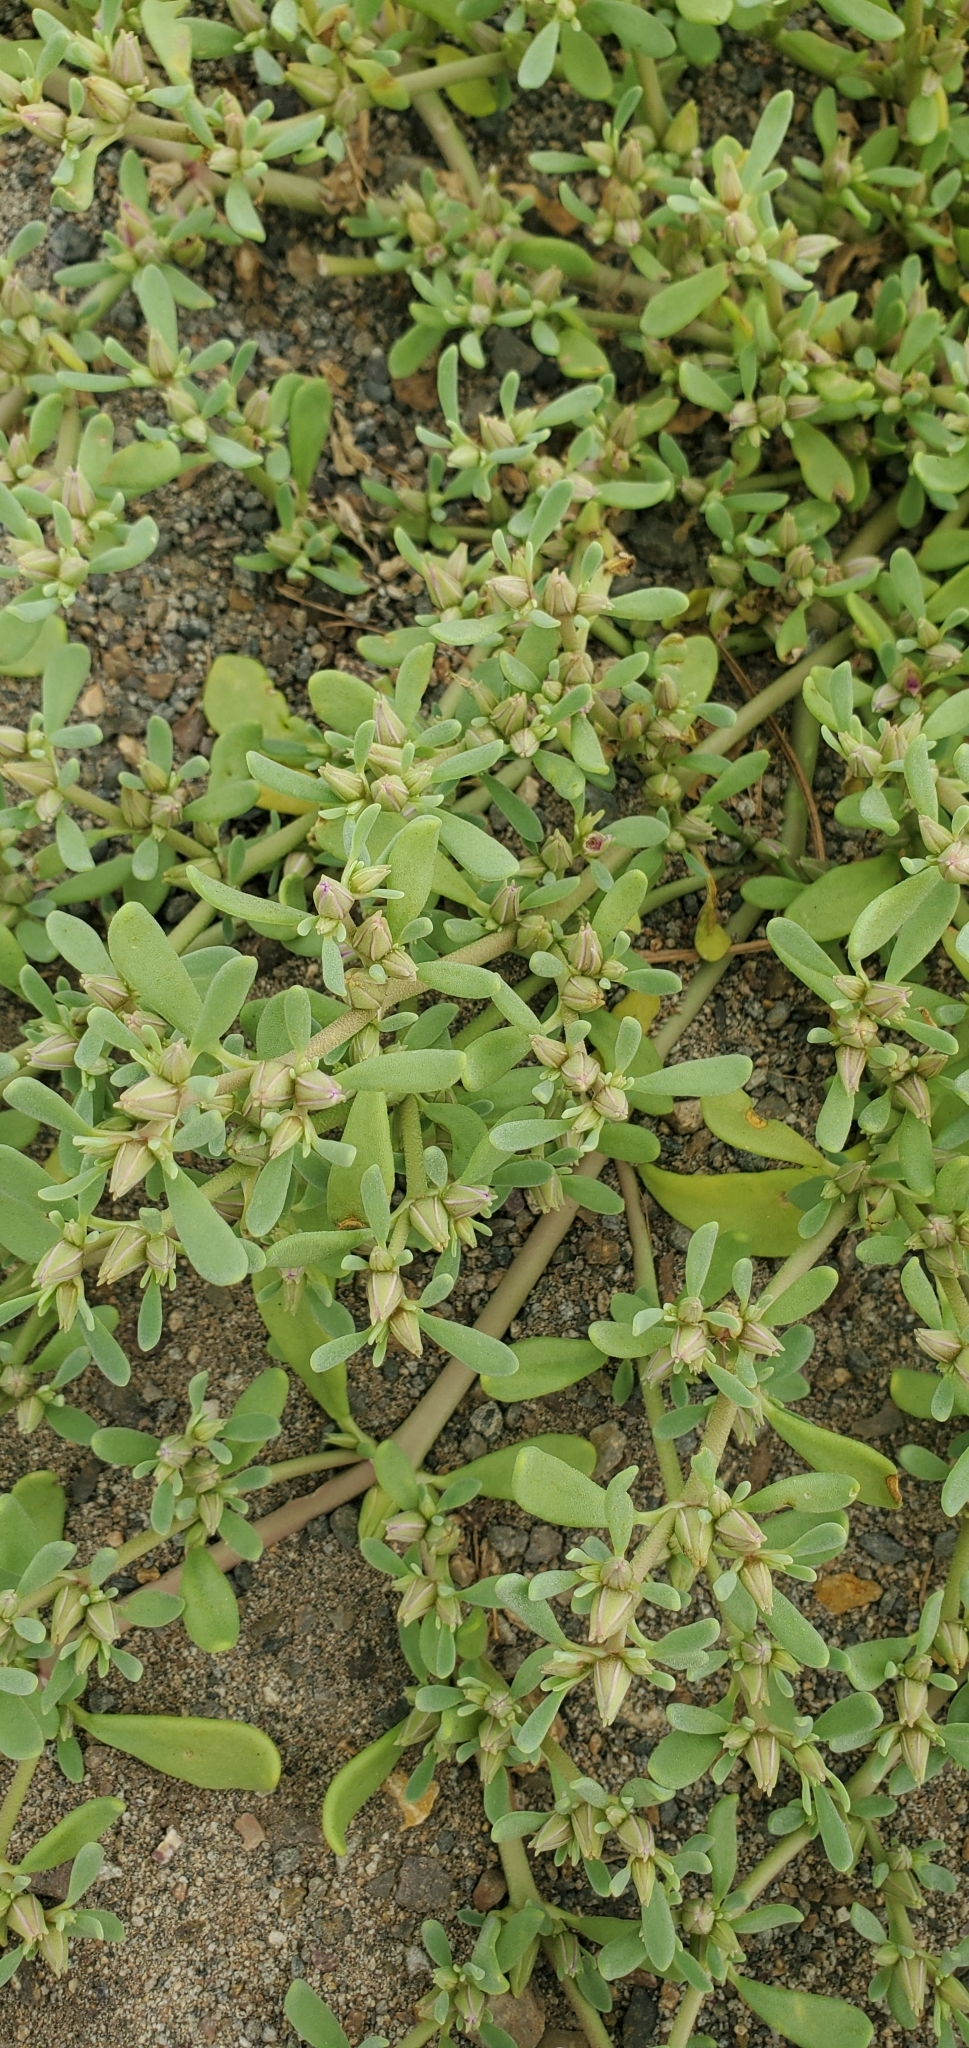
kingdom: Plantae
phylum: Tracheophyta
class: Magnoliopsida
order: Caryophyllales
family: Aizoaceae
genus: Sesuvium
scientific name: Sesuvium revolutifolium
